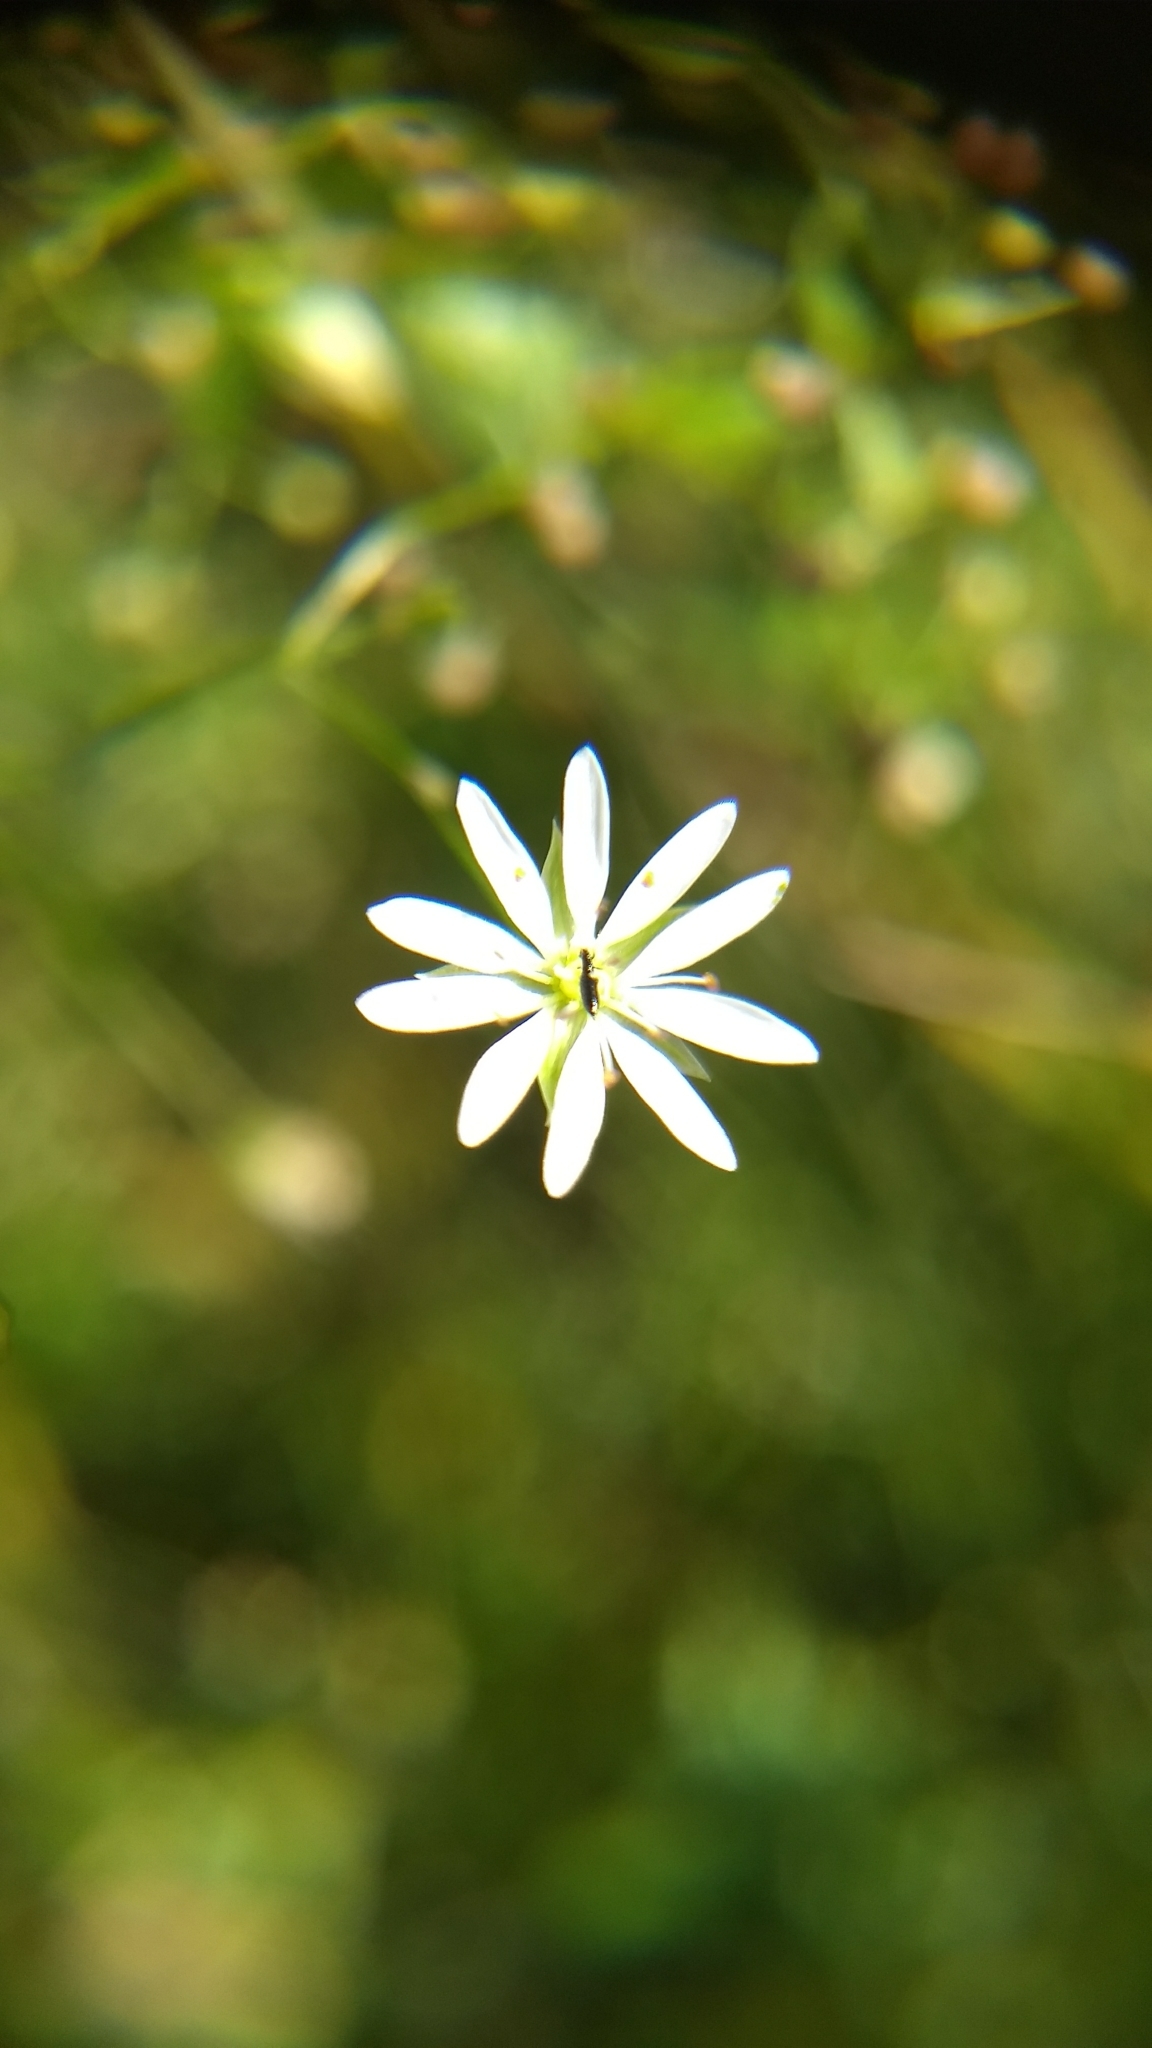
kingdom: Plantae
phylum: Tracheophyta
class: Magnoliopsida
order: Caryophyllales
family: Caryophyllaceae
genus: Stellaria
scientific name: Stellaria graminea
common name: Grass-like starwort
